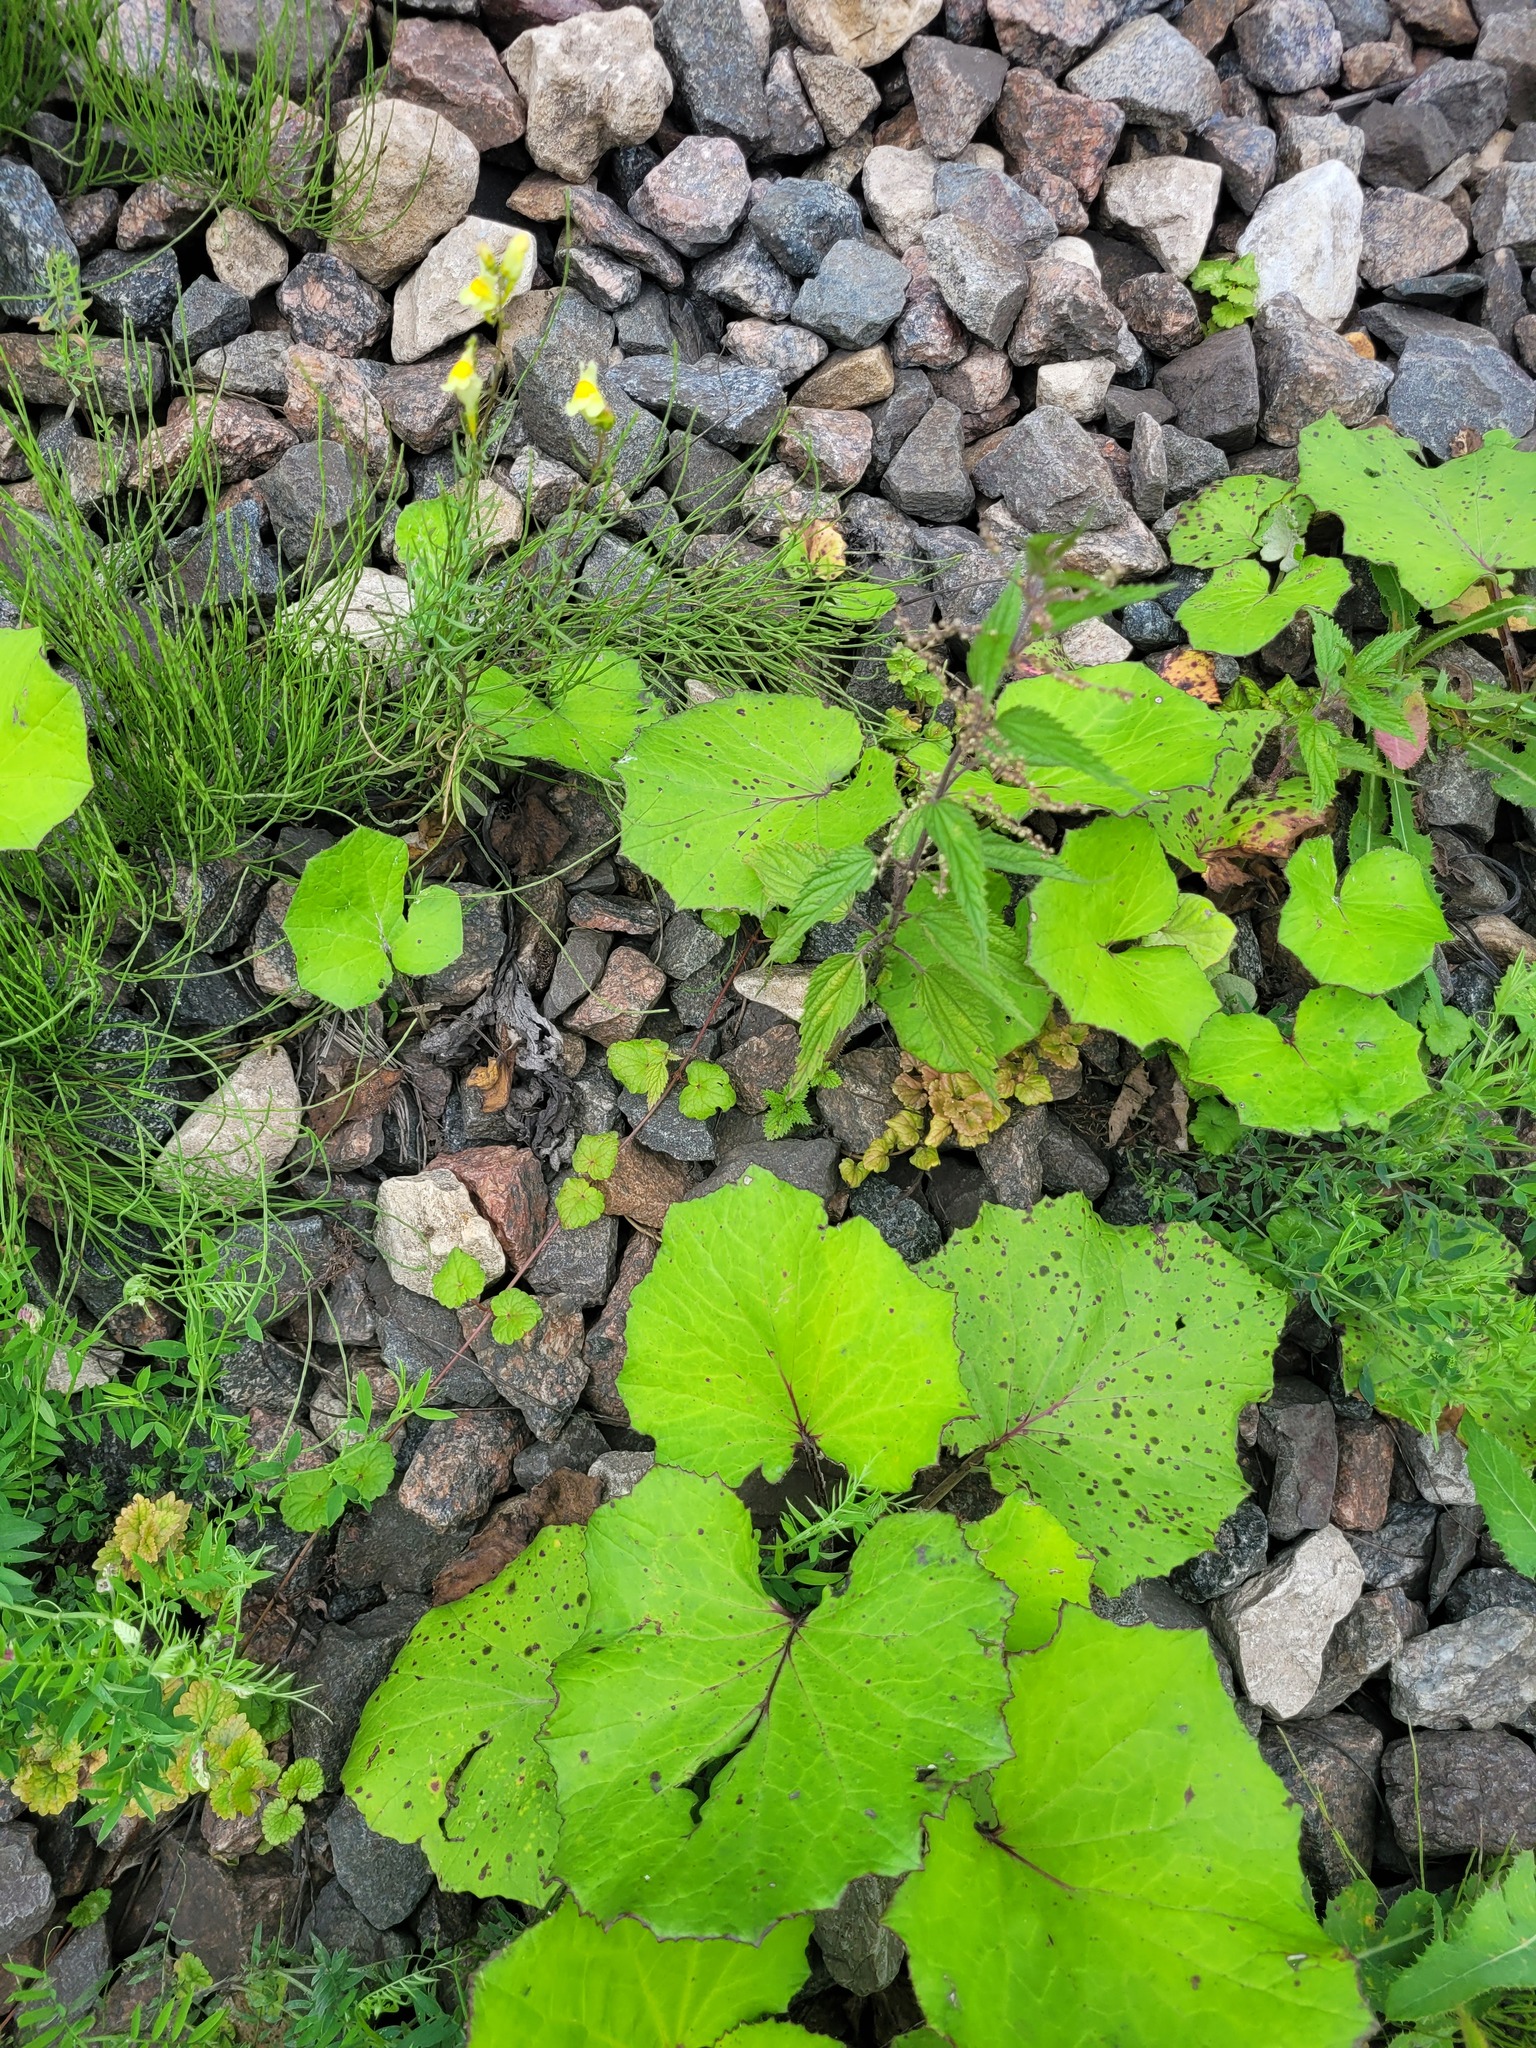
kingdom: Plantae
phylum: Tracheophyta
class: Magnoliopsida
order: Asterales
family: Asteraceae
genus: Tussilago
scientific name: Tussilago farfara
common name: Coltsfoot
